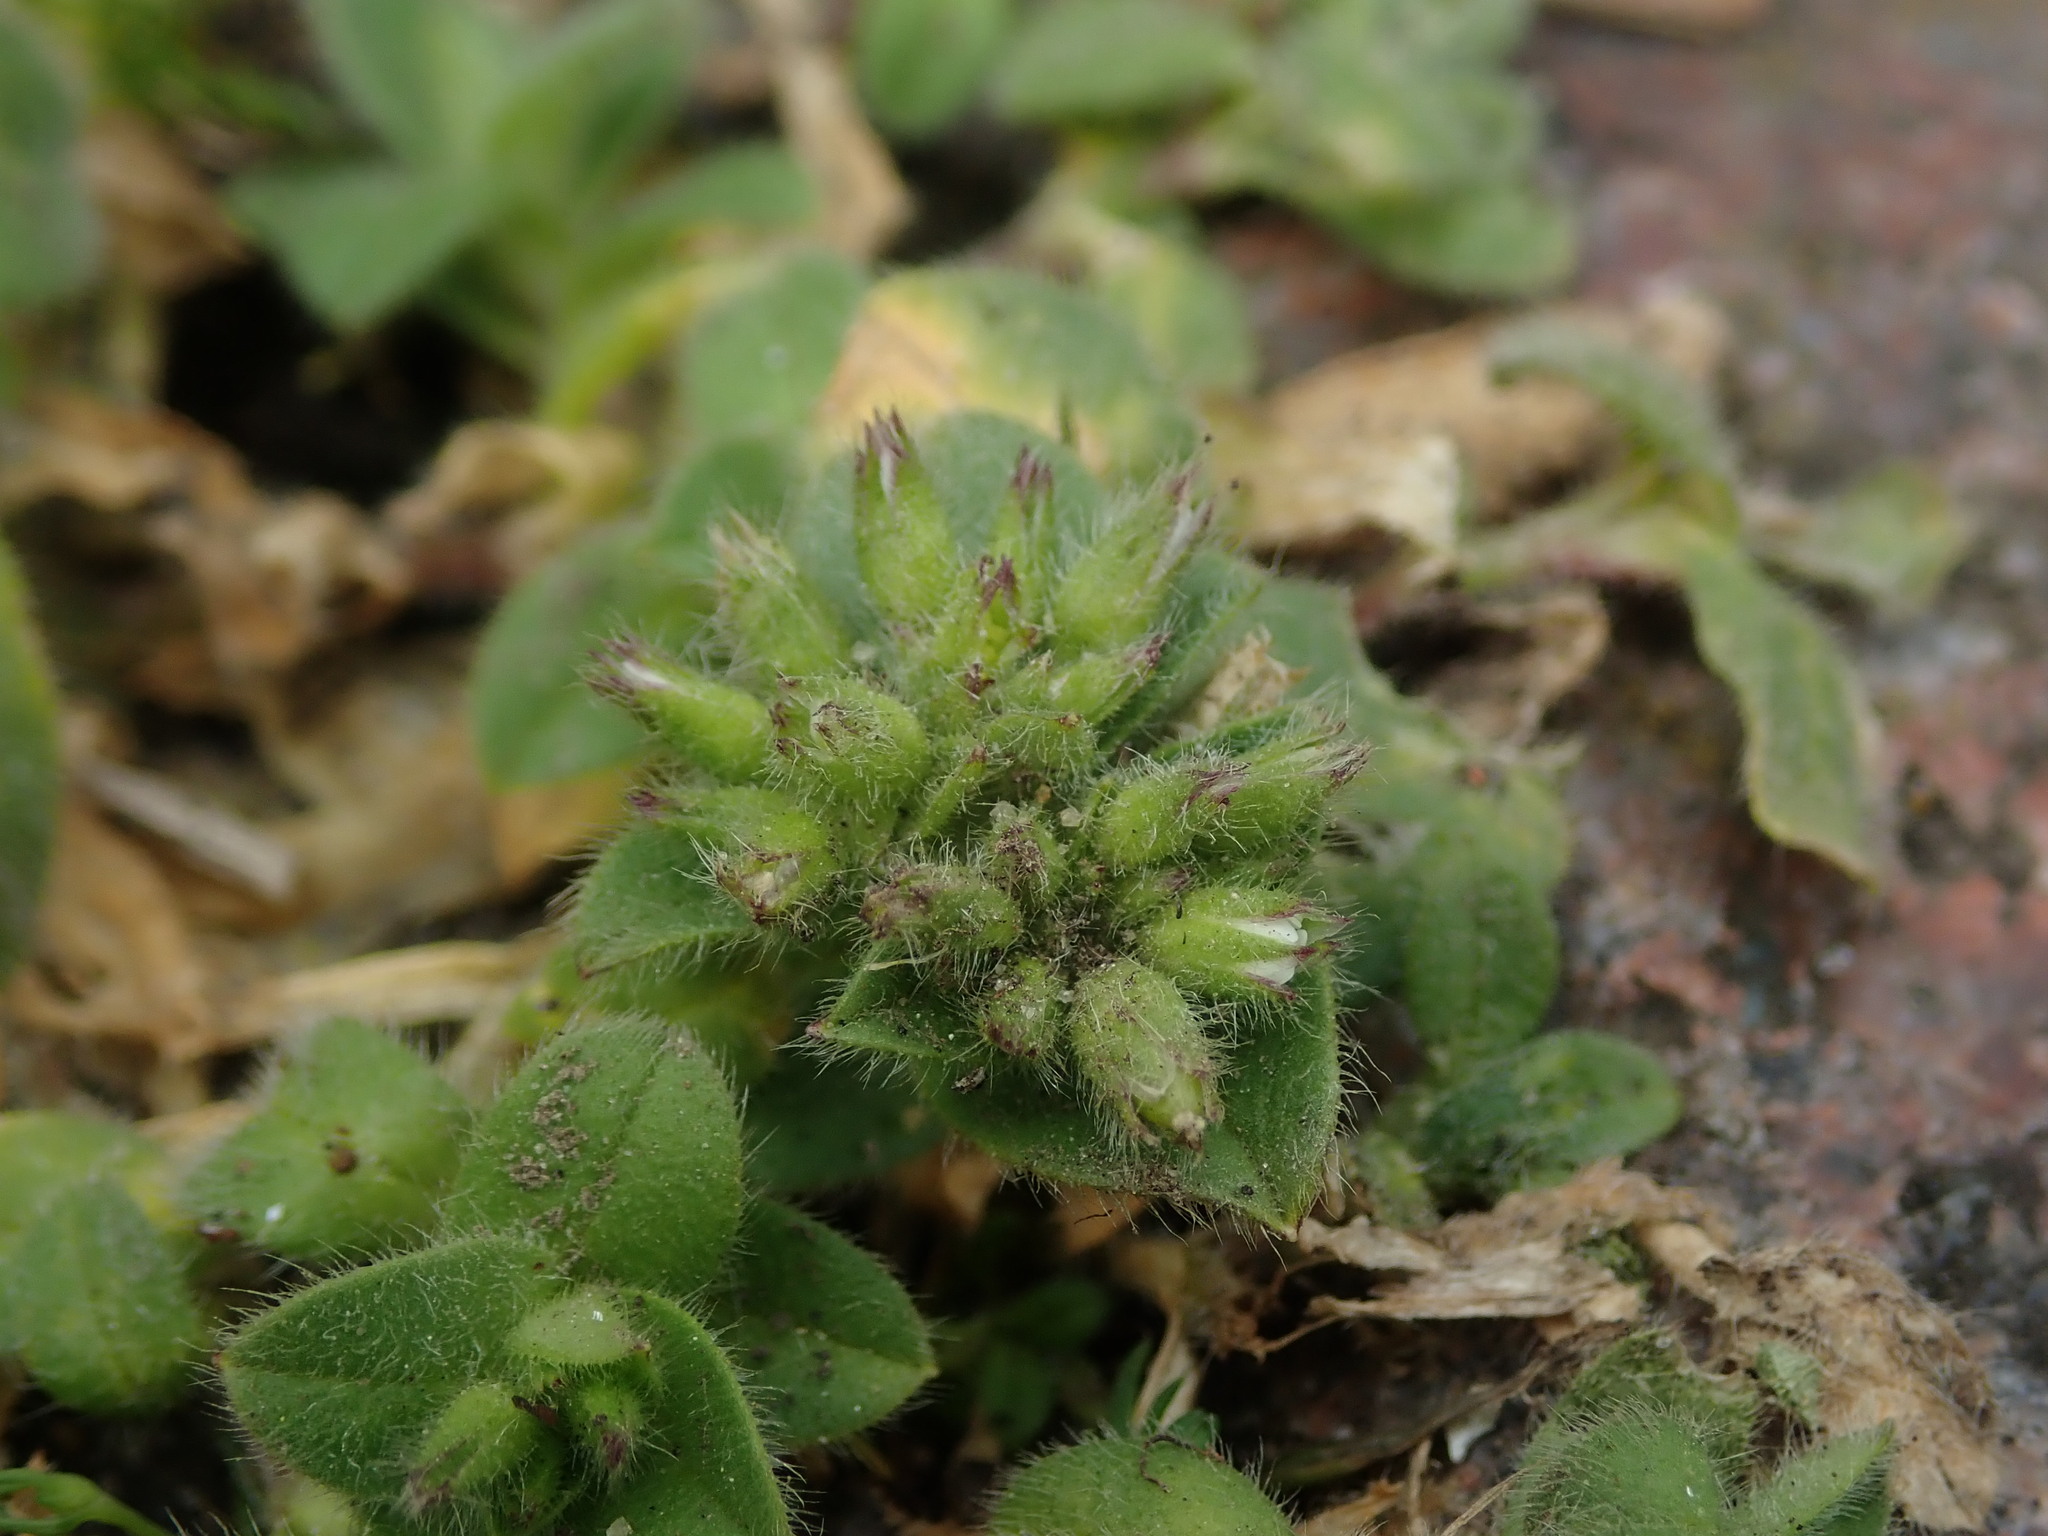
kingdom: Plantae
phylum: Tracheophyta
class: Magnoliopsida
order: Caryophyllales
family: Caryophyllaceae
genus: Cerastium
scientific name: Cerastium glomeratum
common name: Sticky chickweed
